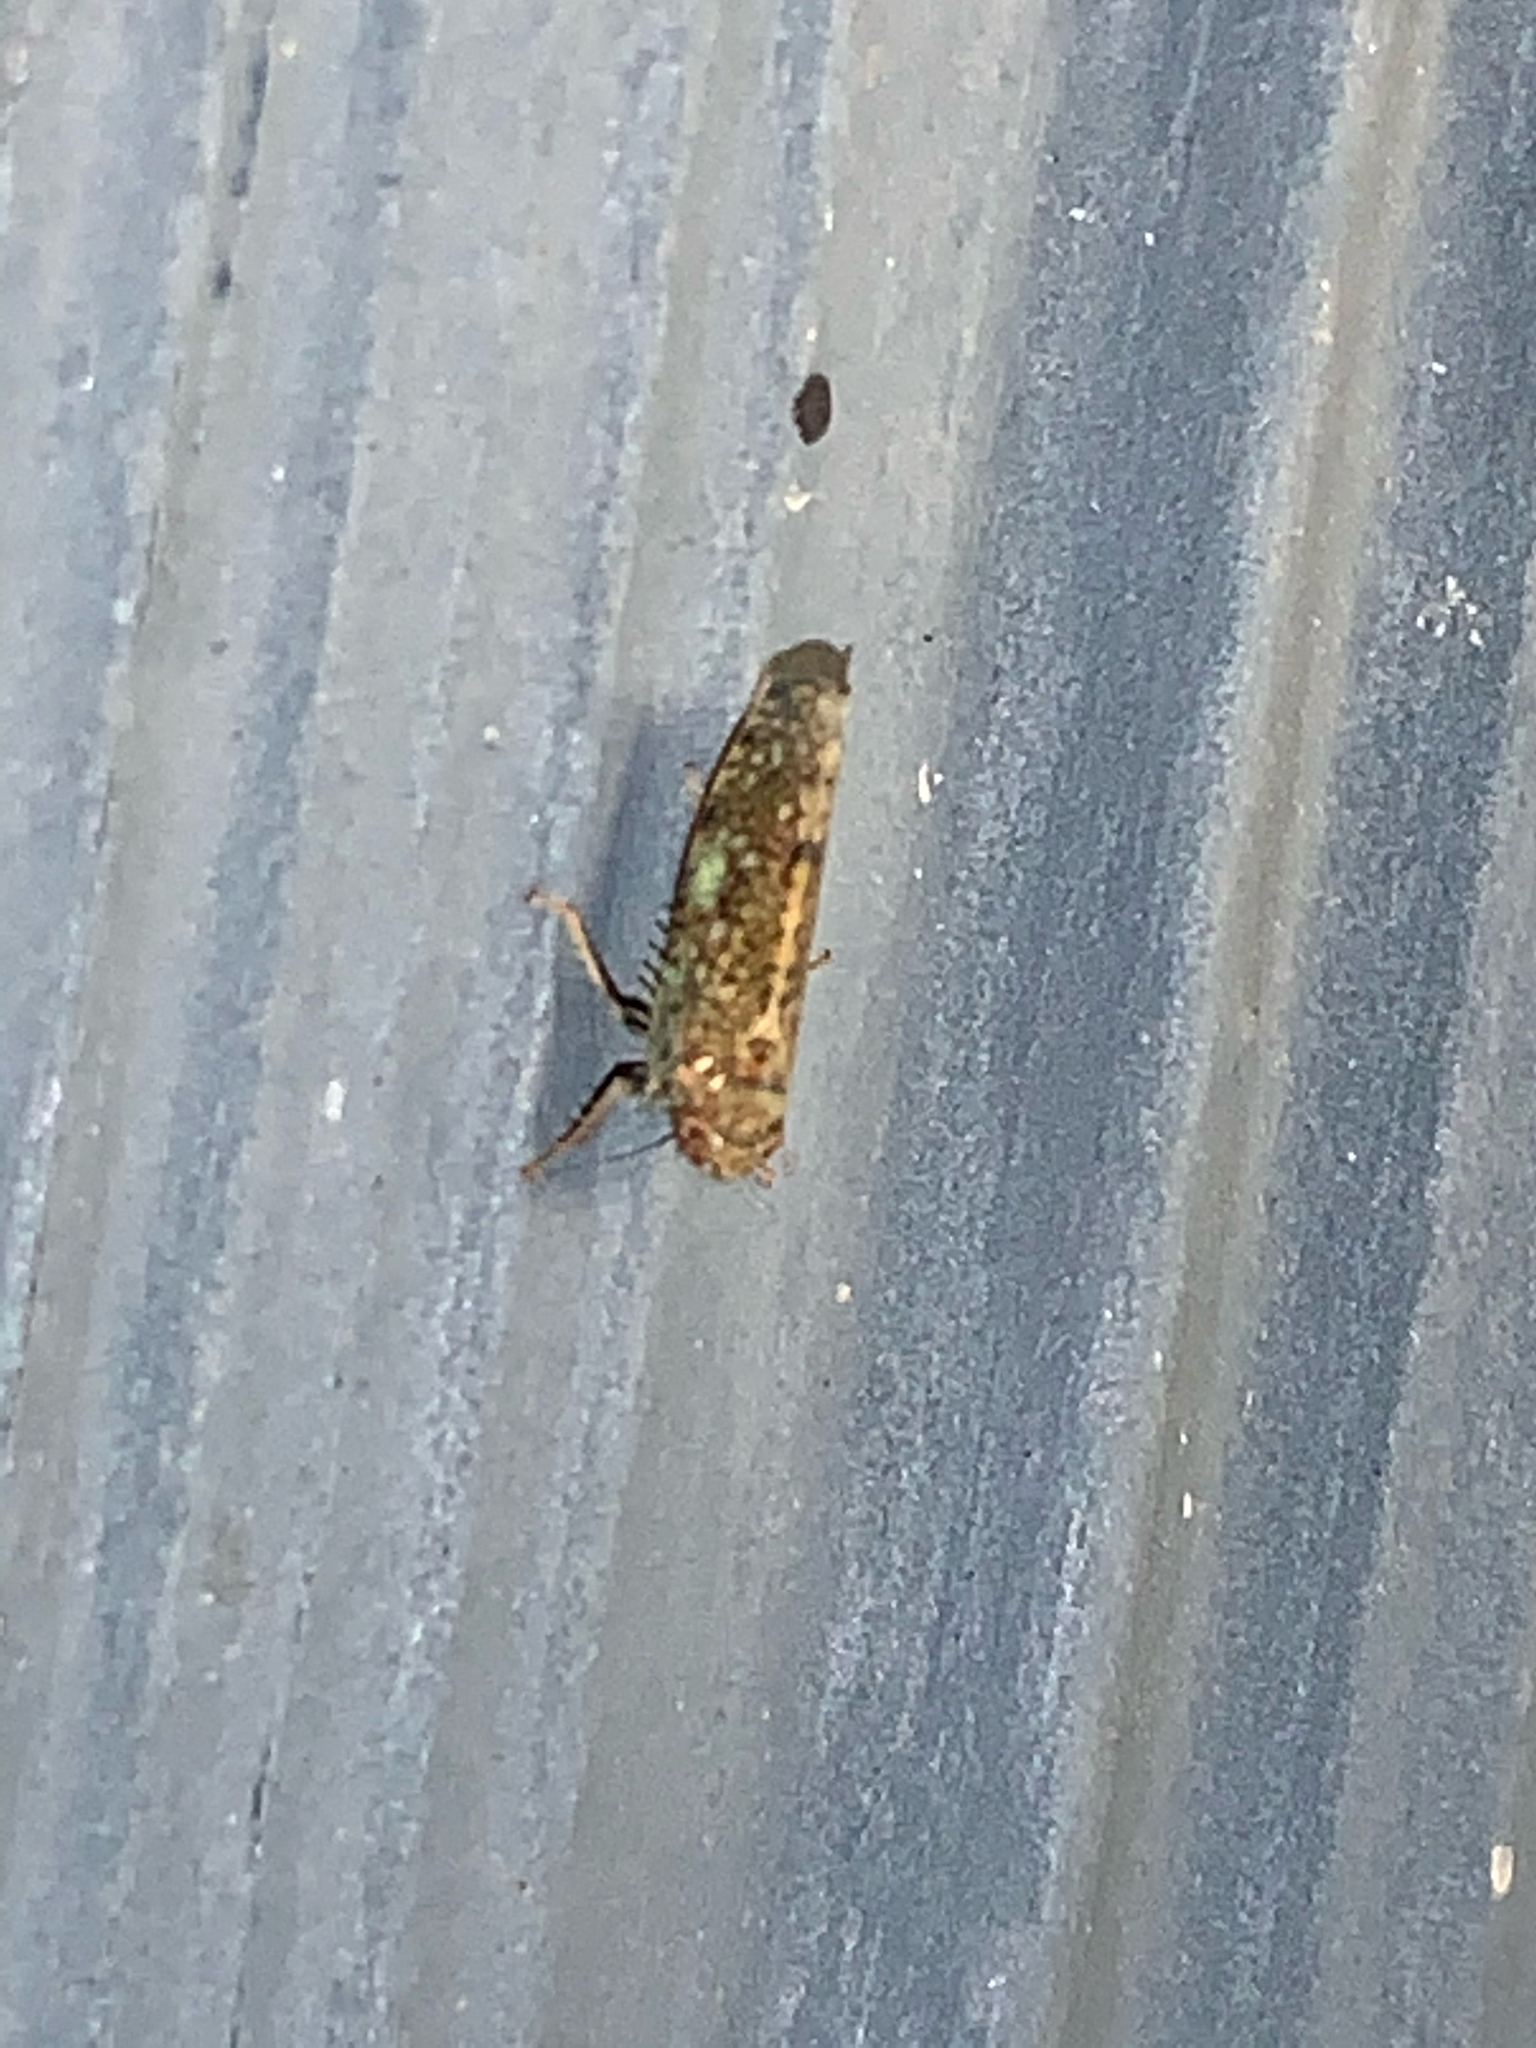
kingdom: Animalia
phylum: Arthropoda
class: Insecta
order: Hemiptera
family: Cicadellidae
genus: Orientus
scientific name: Orientus ishidae
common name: Japanese leafhopper
